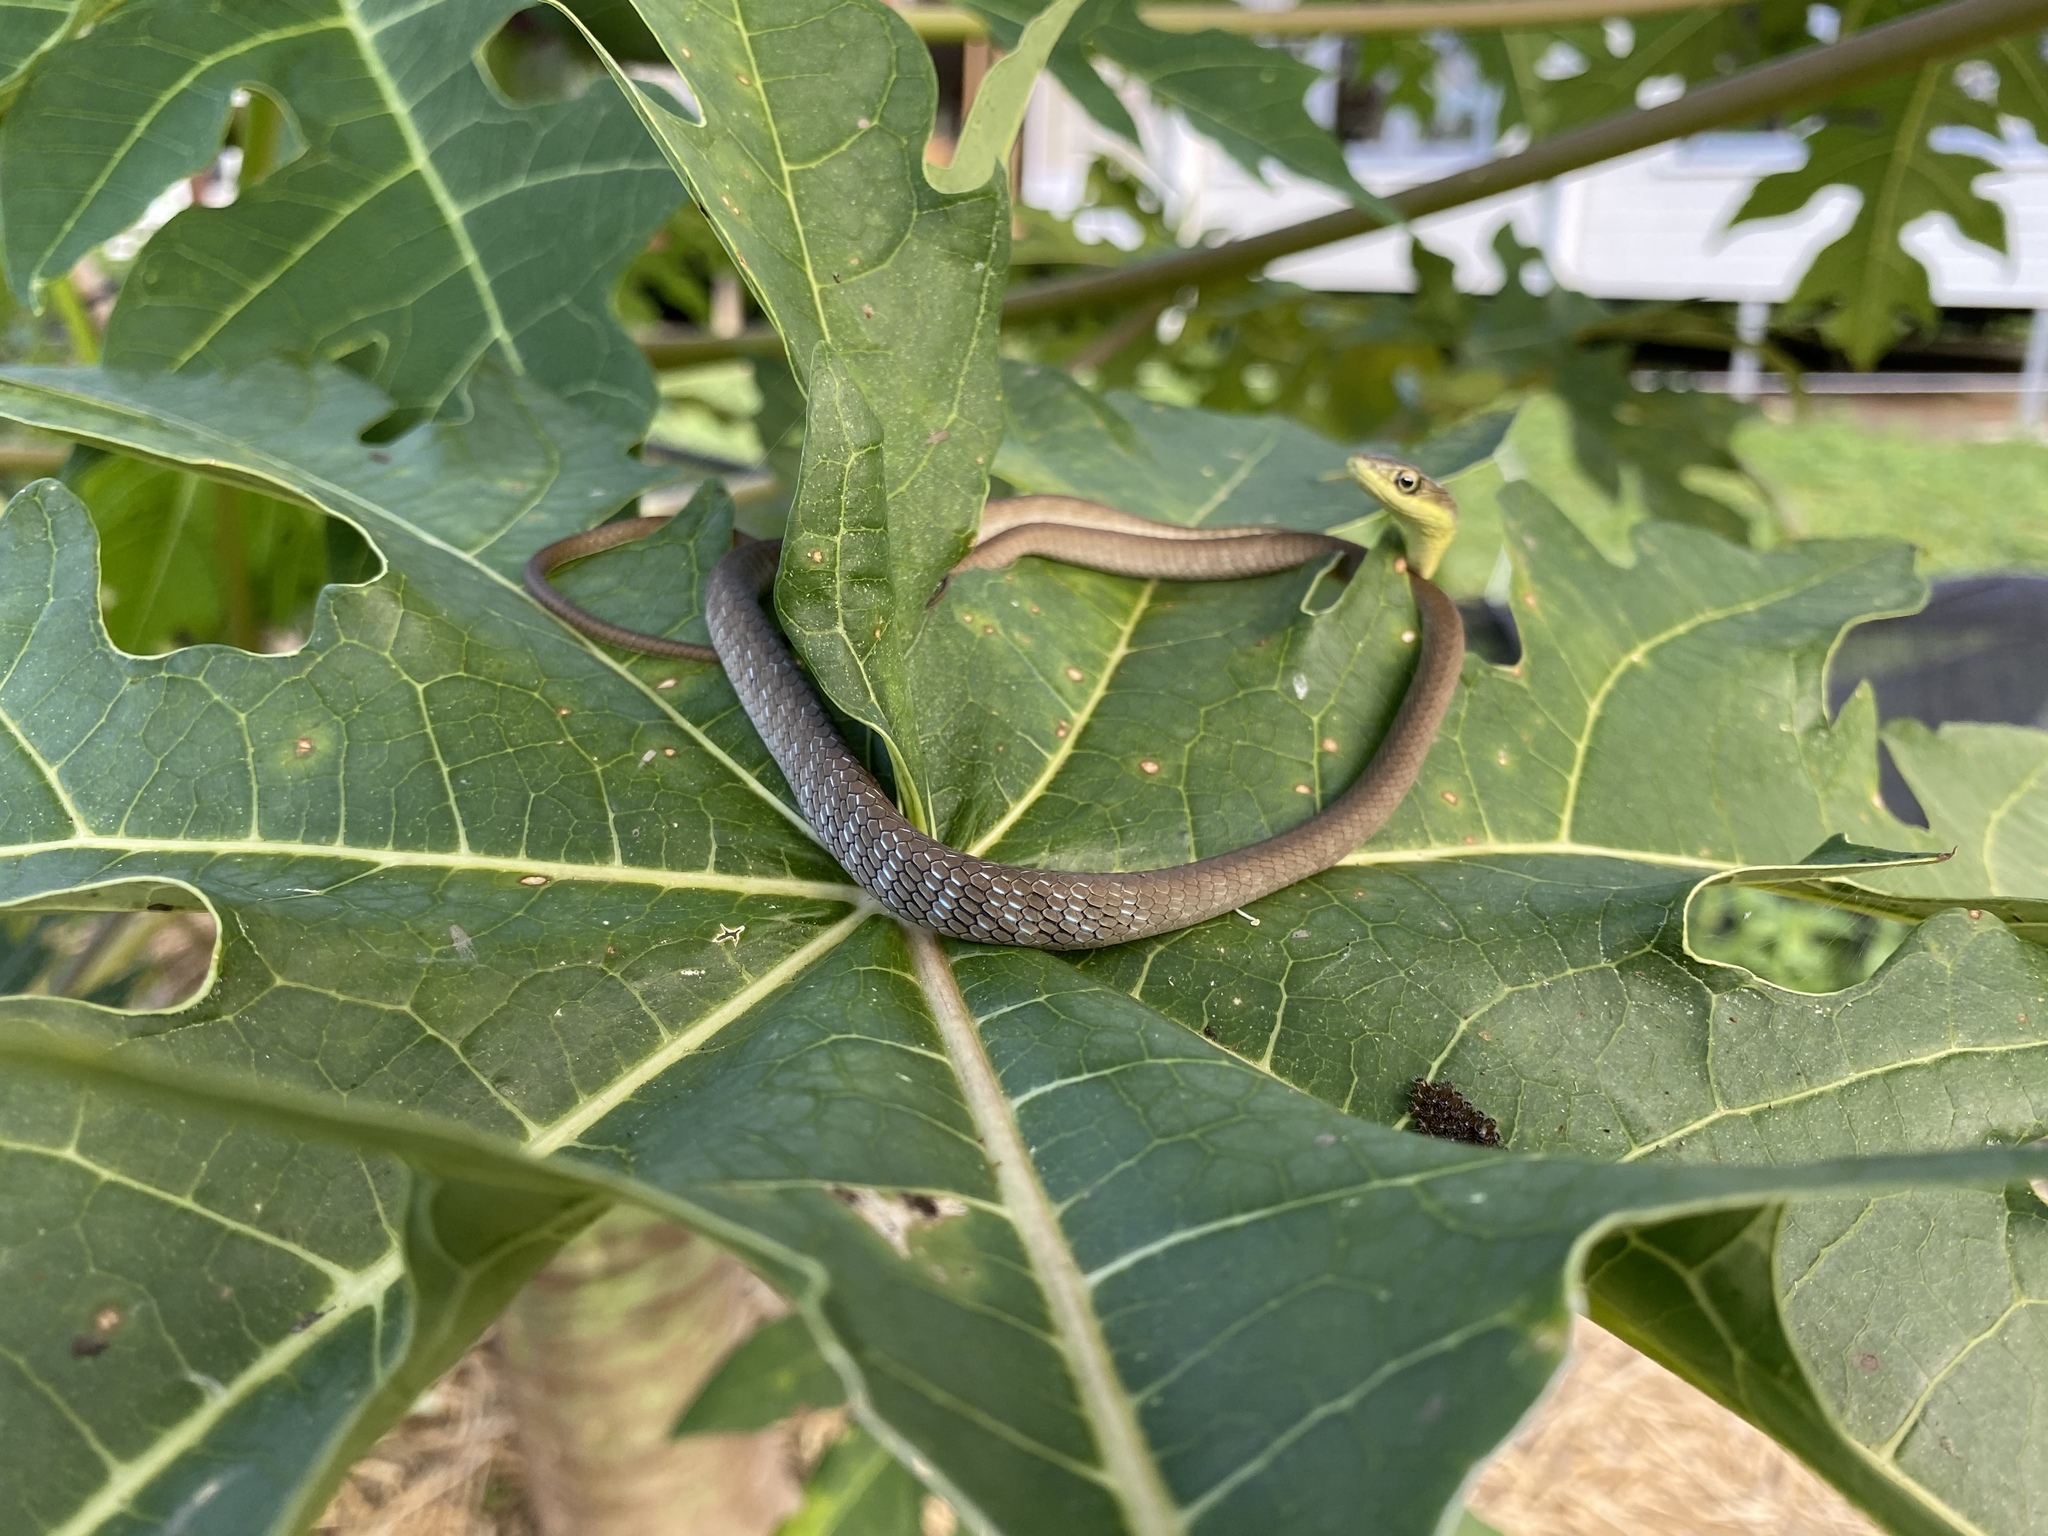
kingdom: Animalia
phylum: Chordata
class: Squamata
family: Colubridae
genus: Dendrelaphis
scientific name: Dendrelaphis punctulatus
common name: Common tree snake
